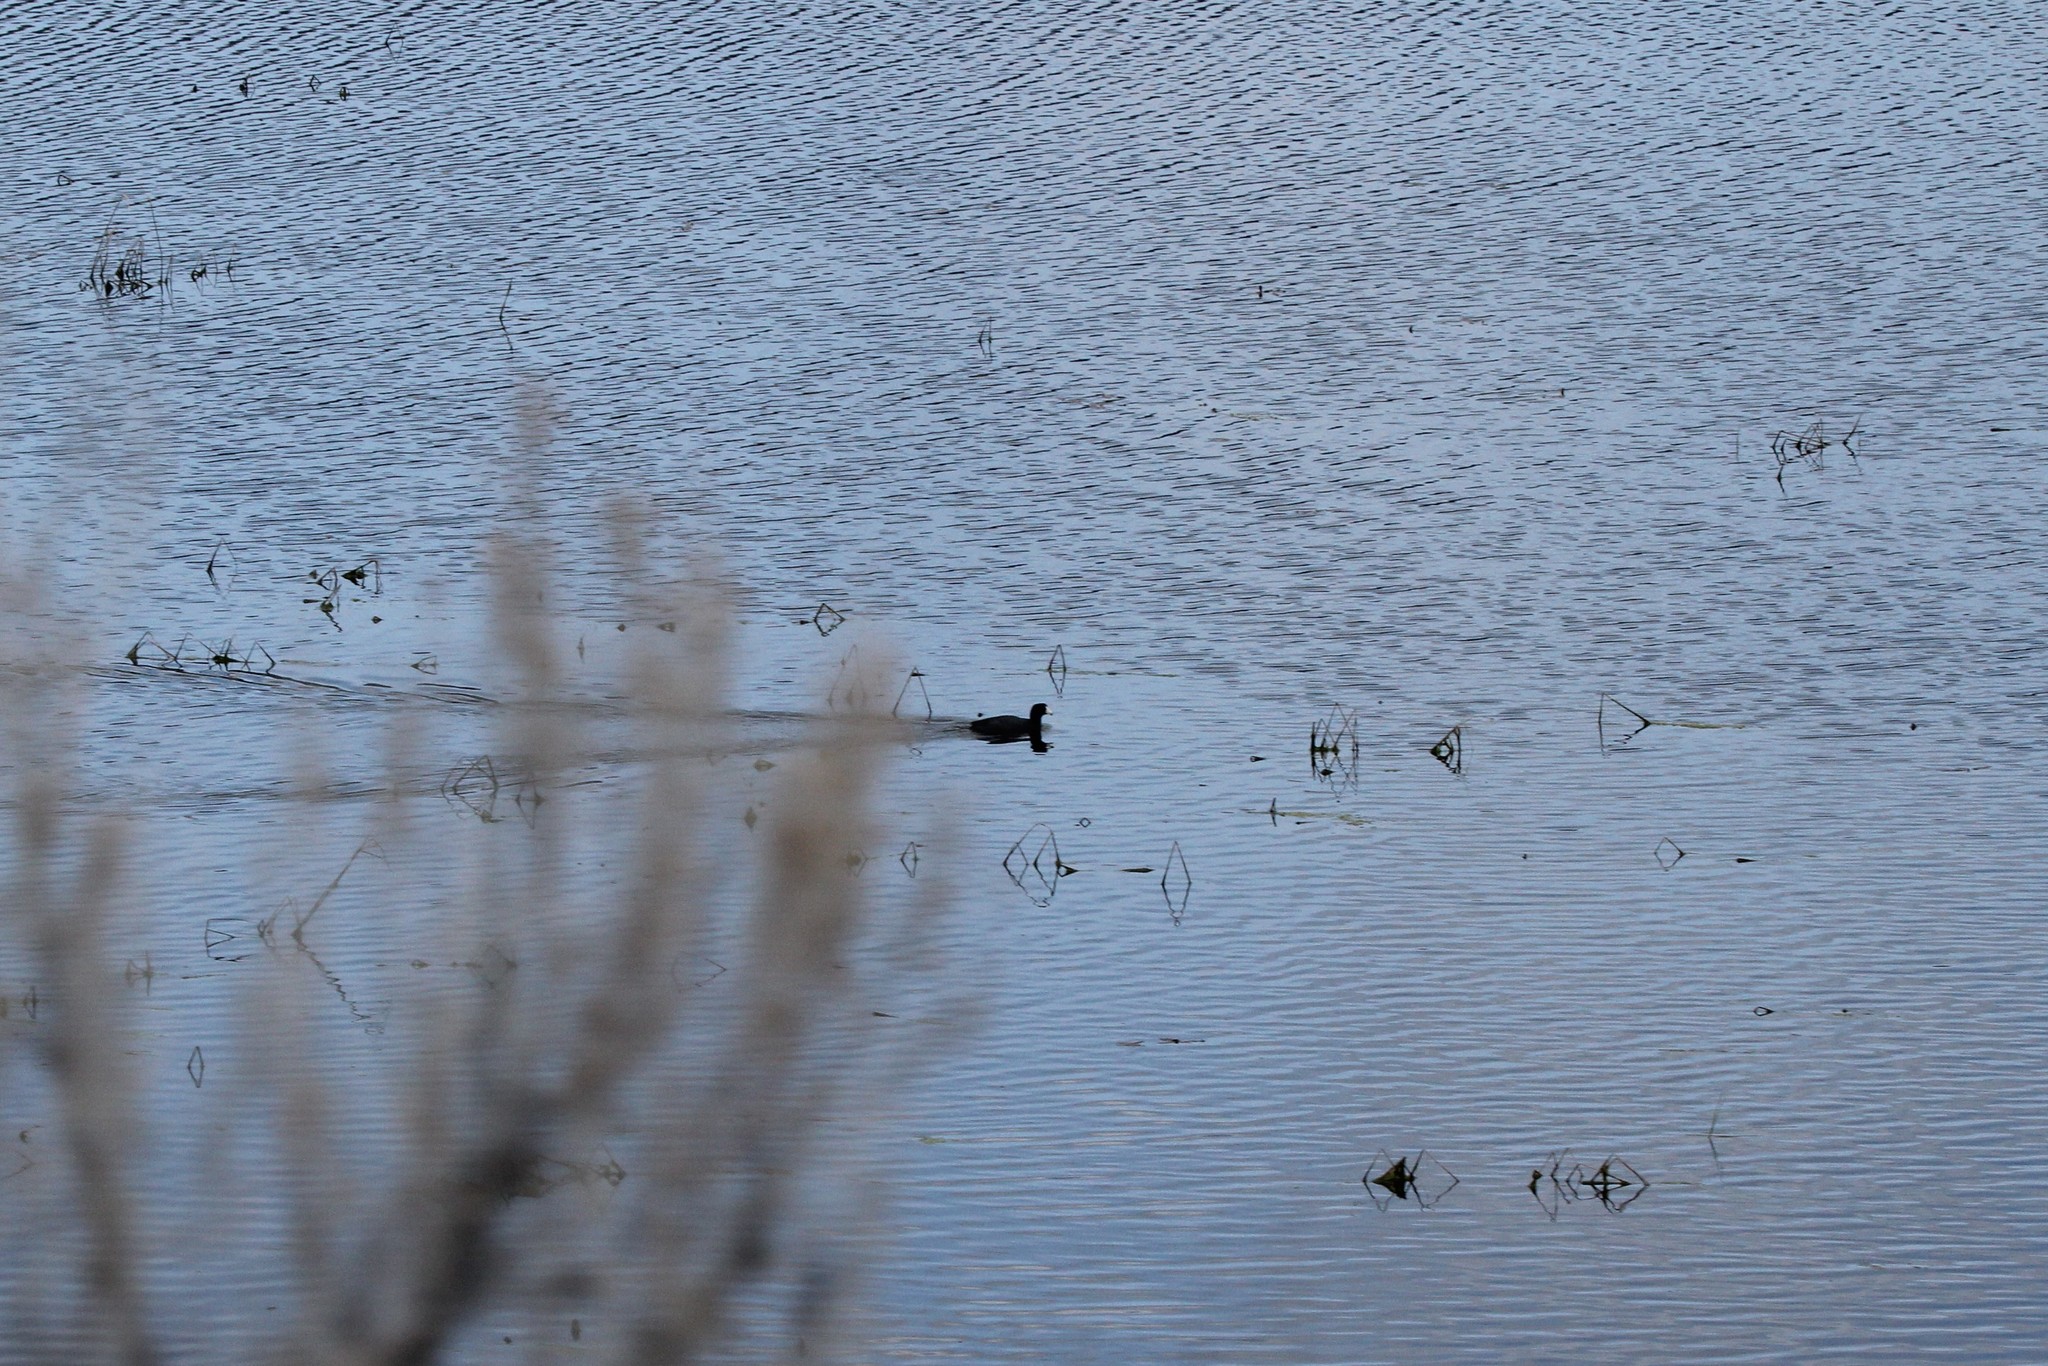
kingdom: Animalia
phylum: Chordata
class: Aves
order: Gruiformes
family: Rallidae
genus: Fulica
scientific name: Fulica americana
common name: American coot
